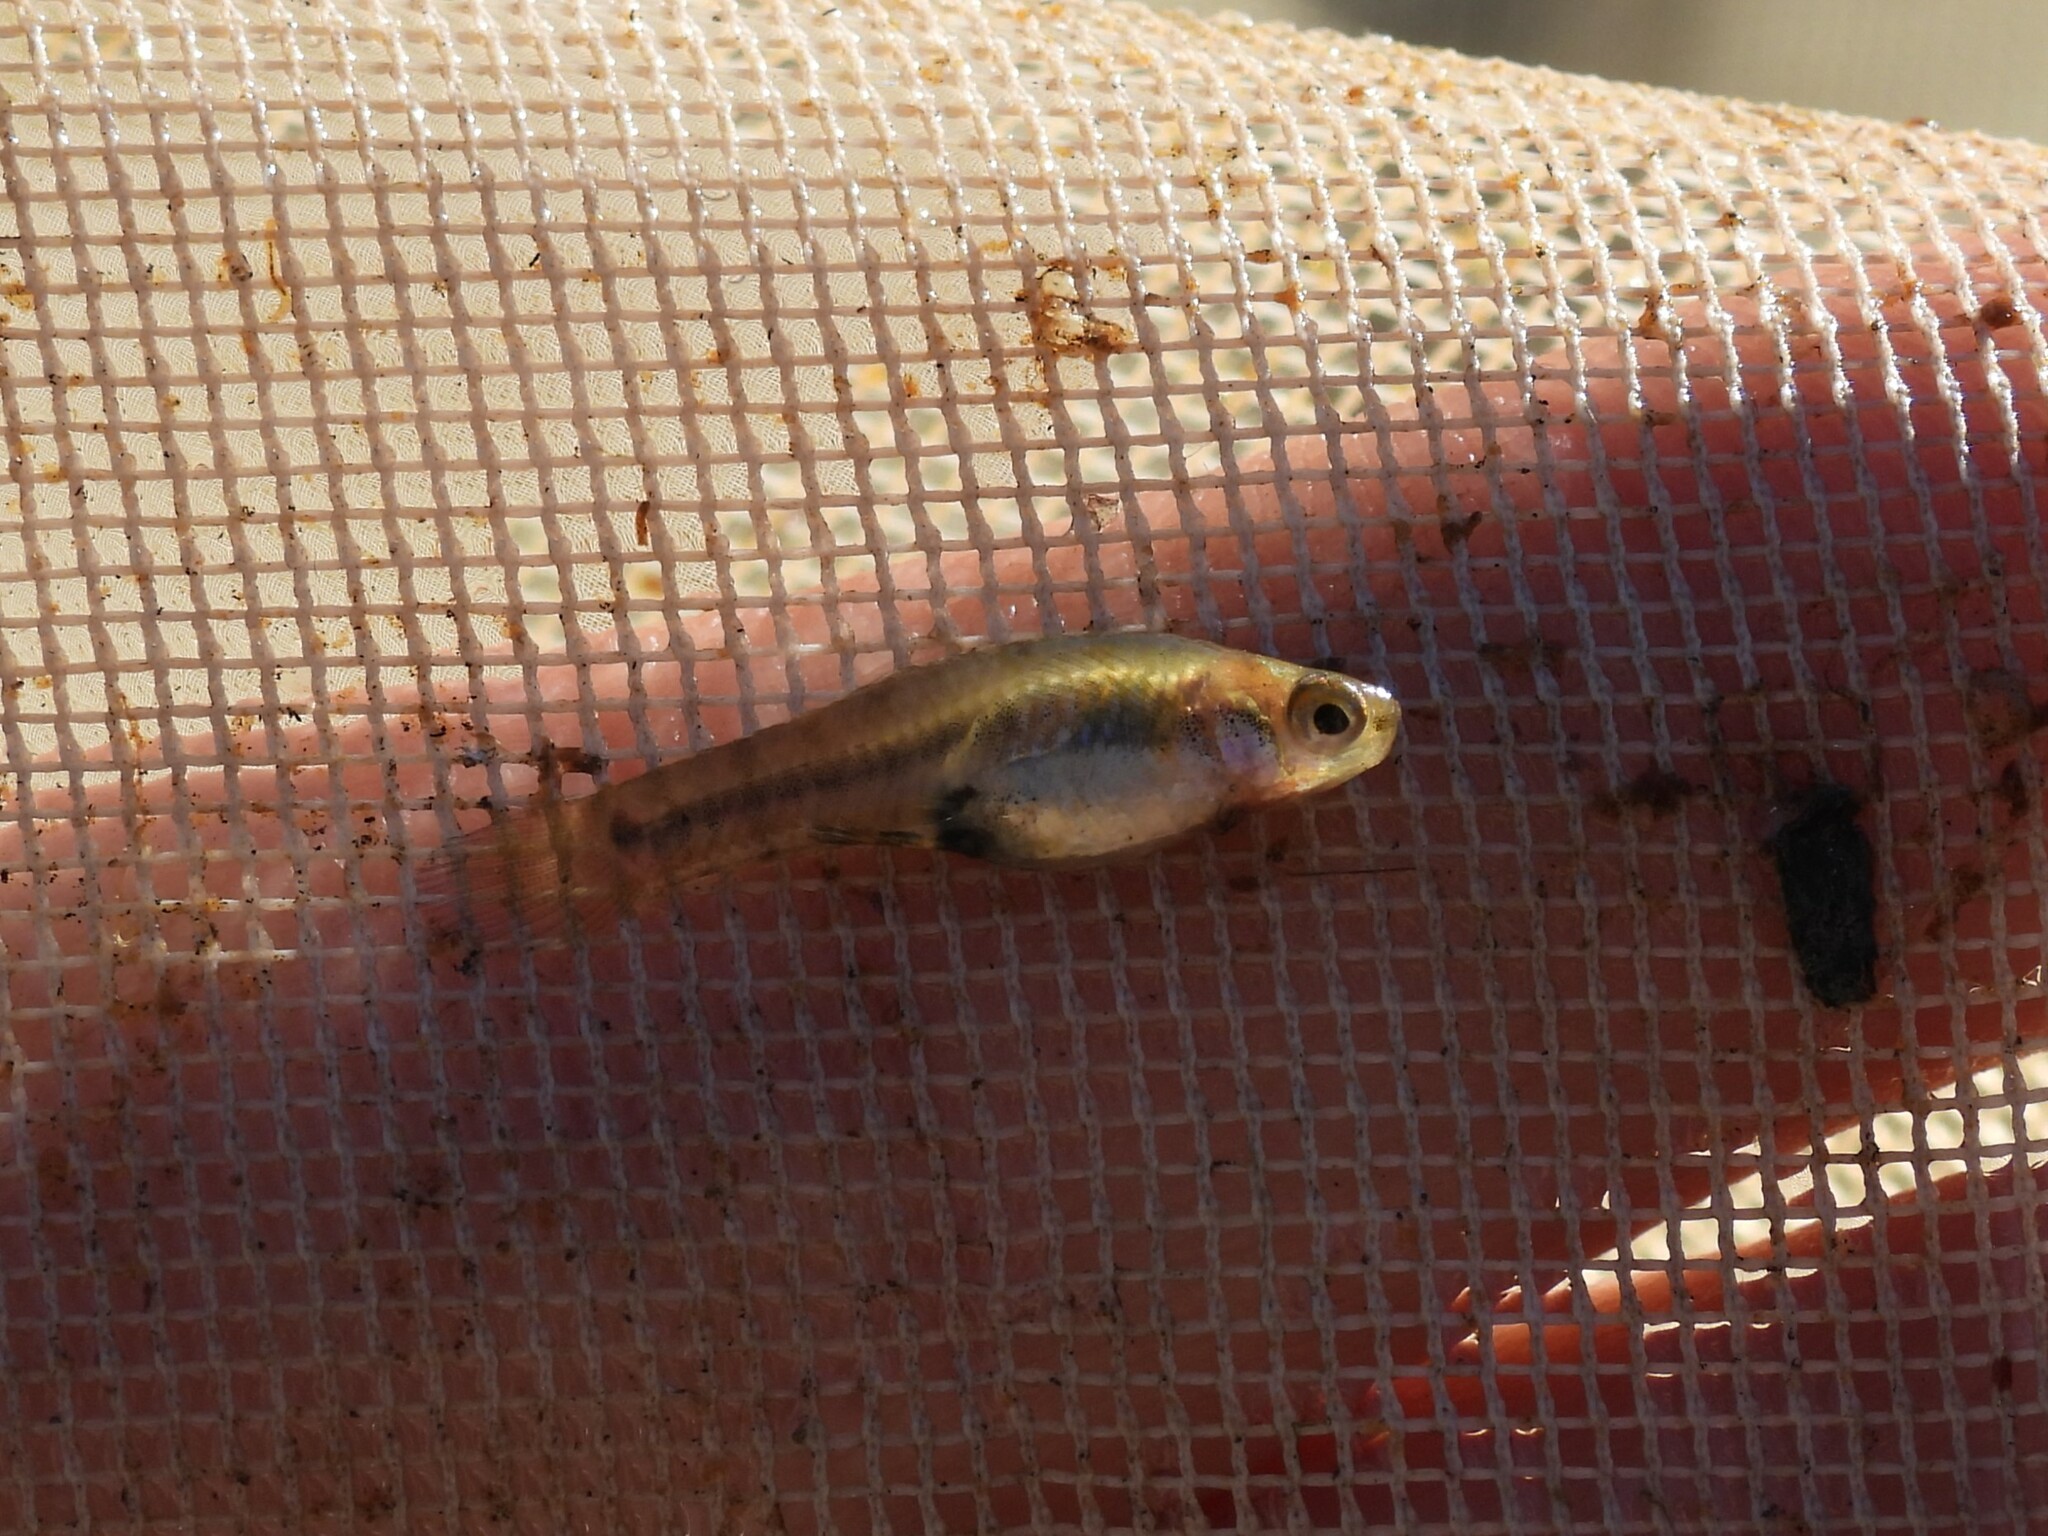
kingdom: Animalia
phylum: Chordata
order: Cyprinodontiformes
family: Poeciliidae
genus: Heterandria
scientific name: Heterandria formosa
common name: Least killifish
